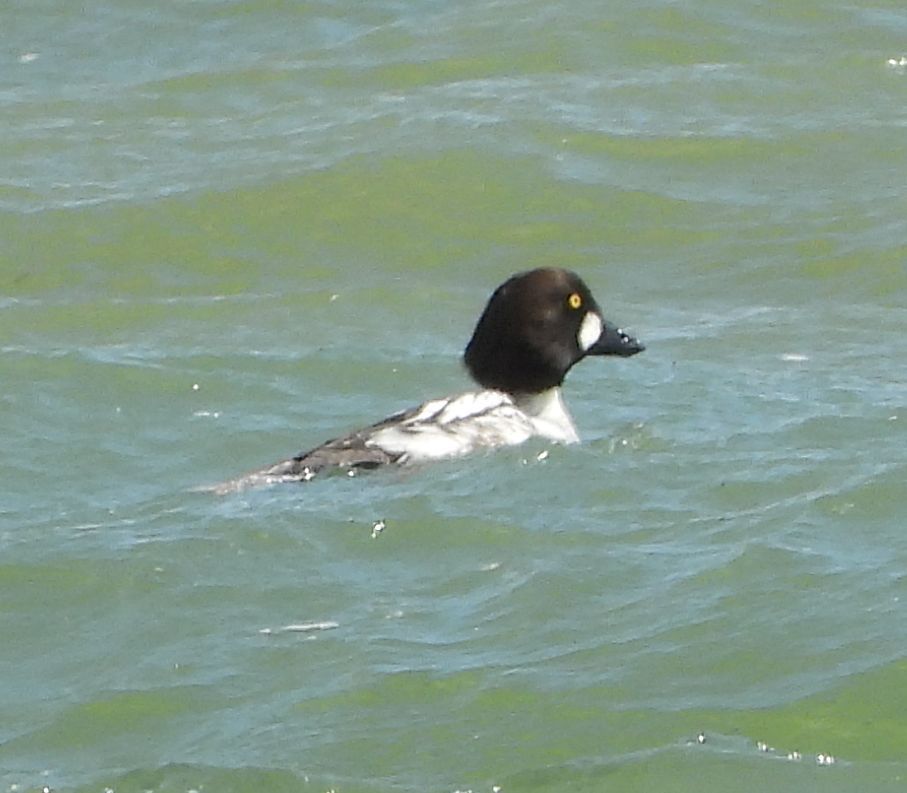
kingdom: Animalia
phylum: Chordata
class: Aves
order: Anseriformes
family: Anatidae
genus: Bucephala
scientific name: Bucephala clangula
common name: Common goldeneye
